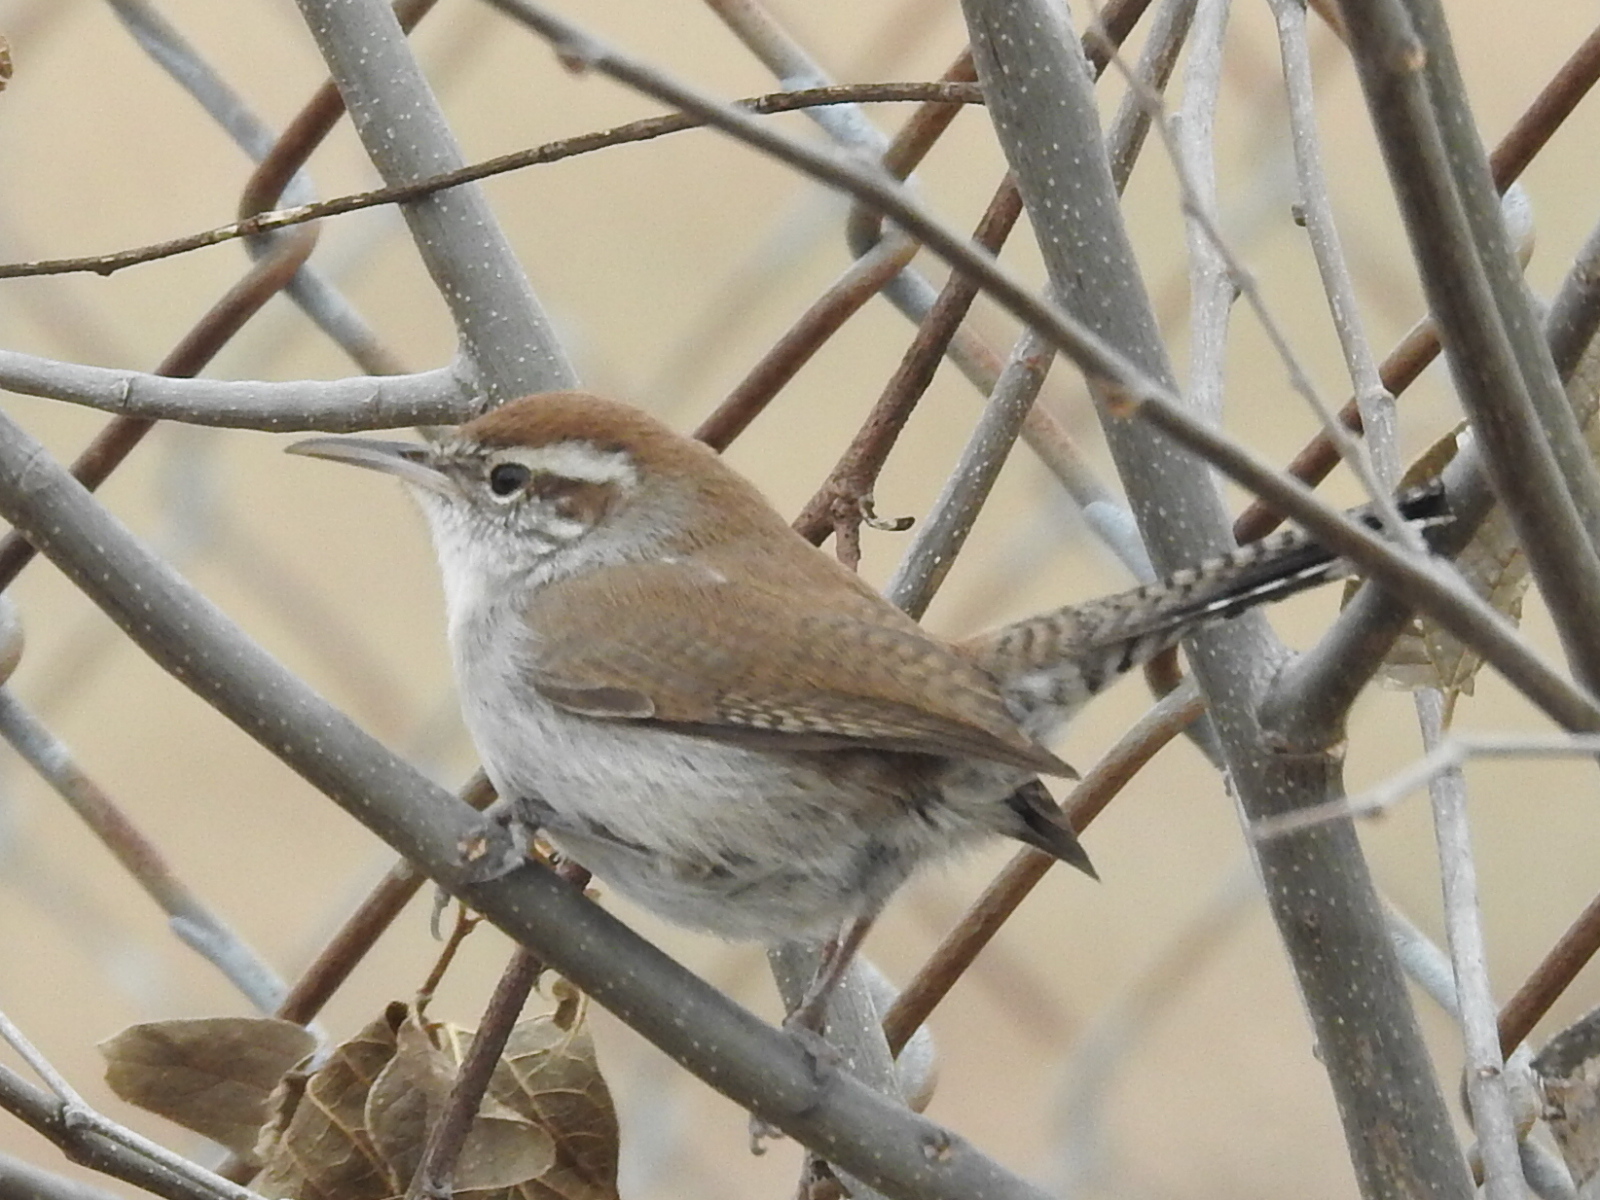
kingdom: Animalia
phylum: Chordata
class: Aves
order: Passeriformes
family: Troglodytidae
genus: Thryomanes
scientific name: Thryomanes bewickii
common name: Bewick's wren
